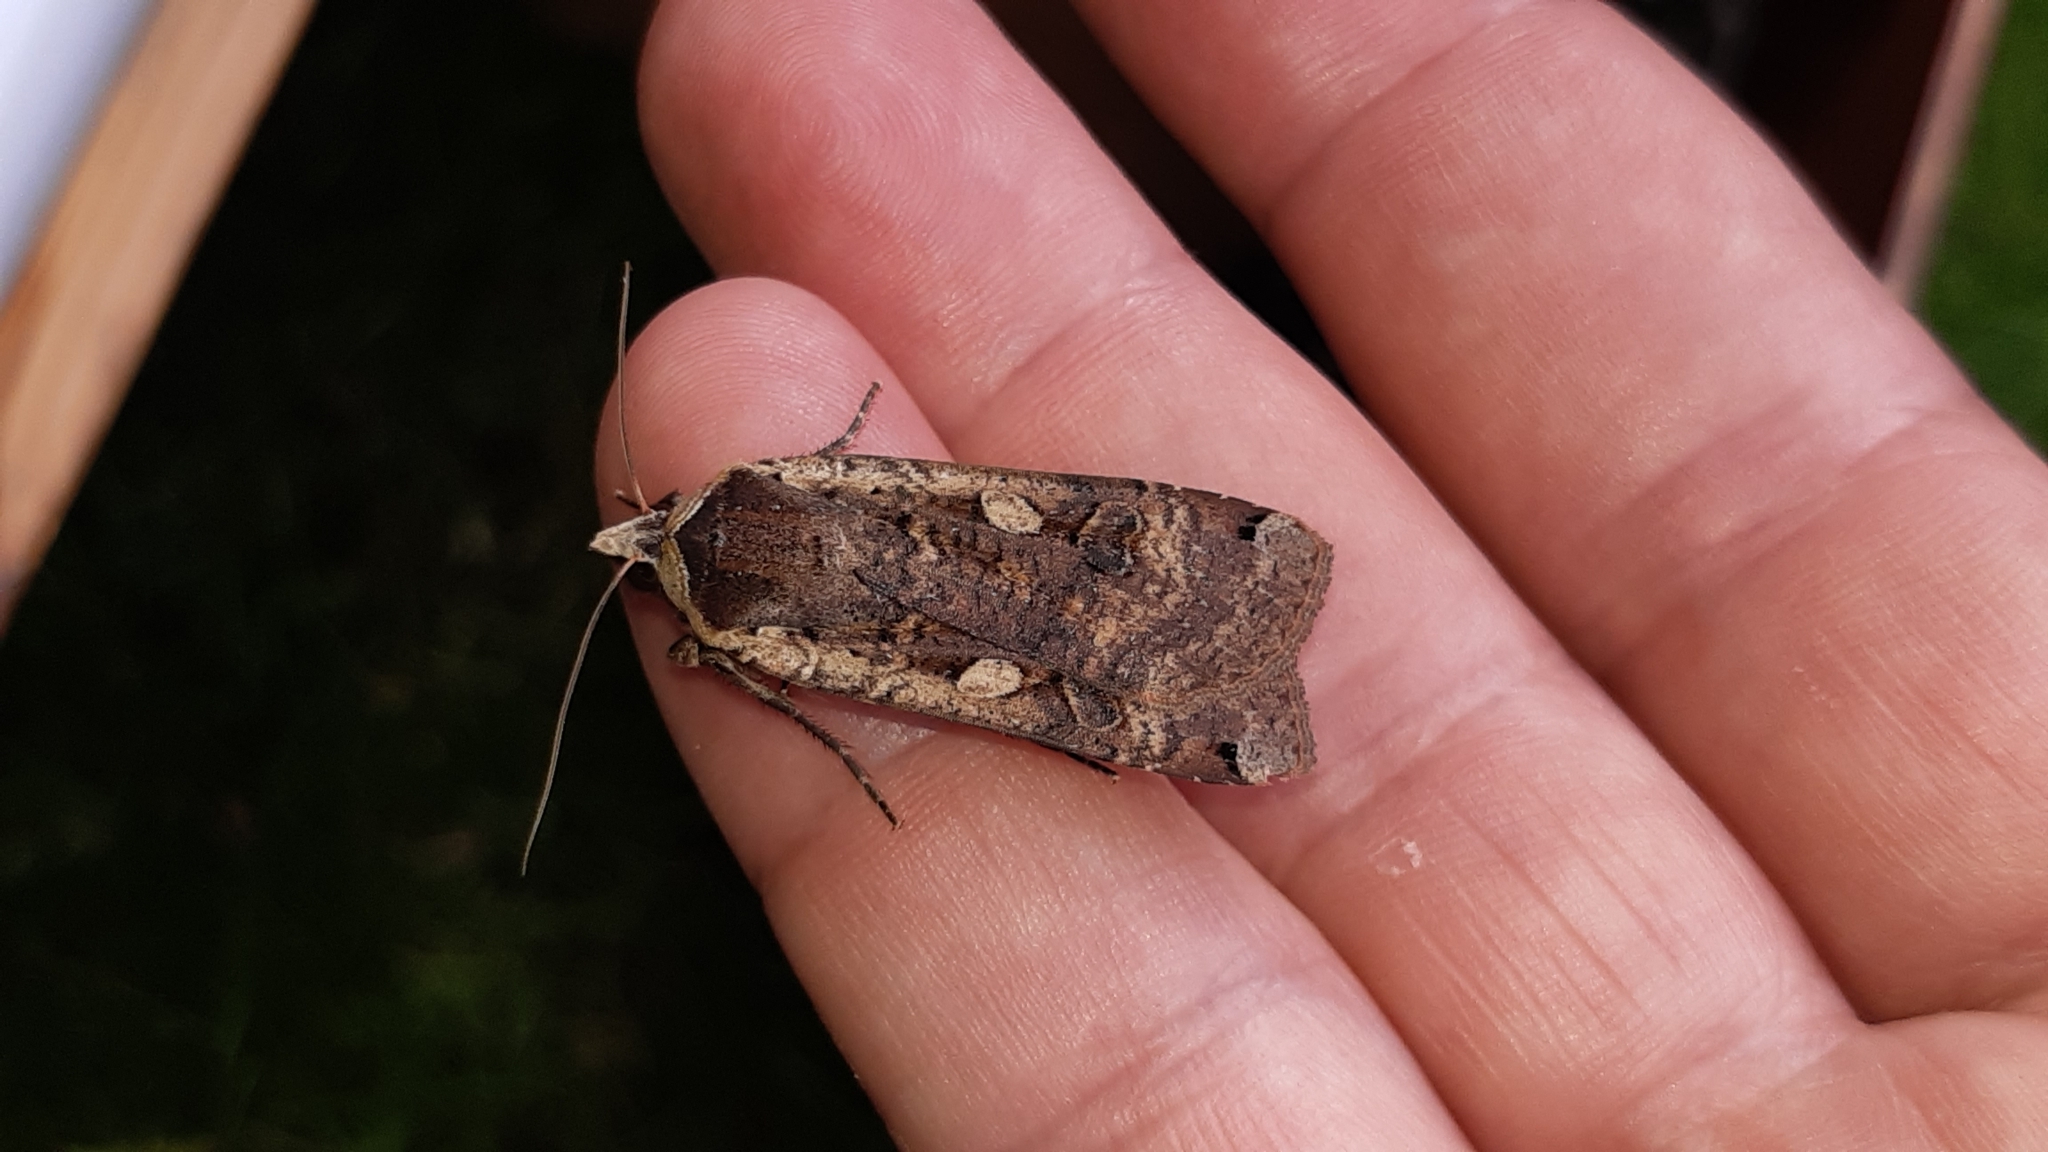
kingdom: Animalia
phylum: Arthropoda
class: Insecta
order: Lepidoptera
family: Noctuidae
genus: Noctua
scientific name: Noctua pronuba
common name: Large yellow underwing
